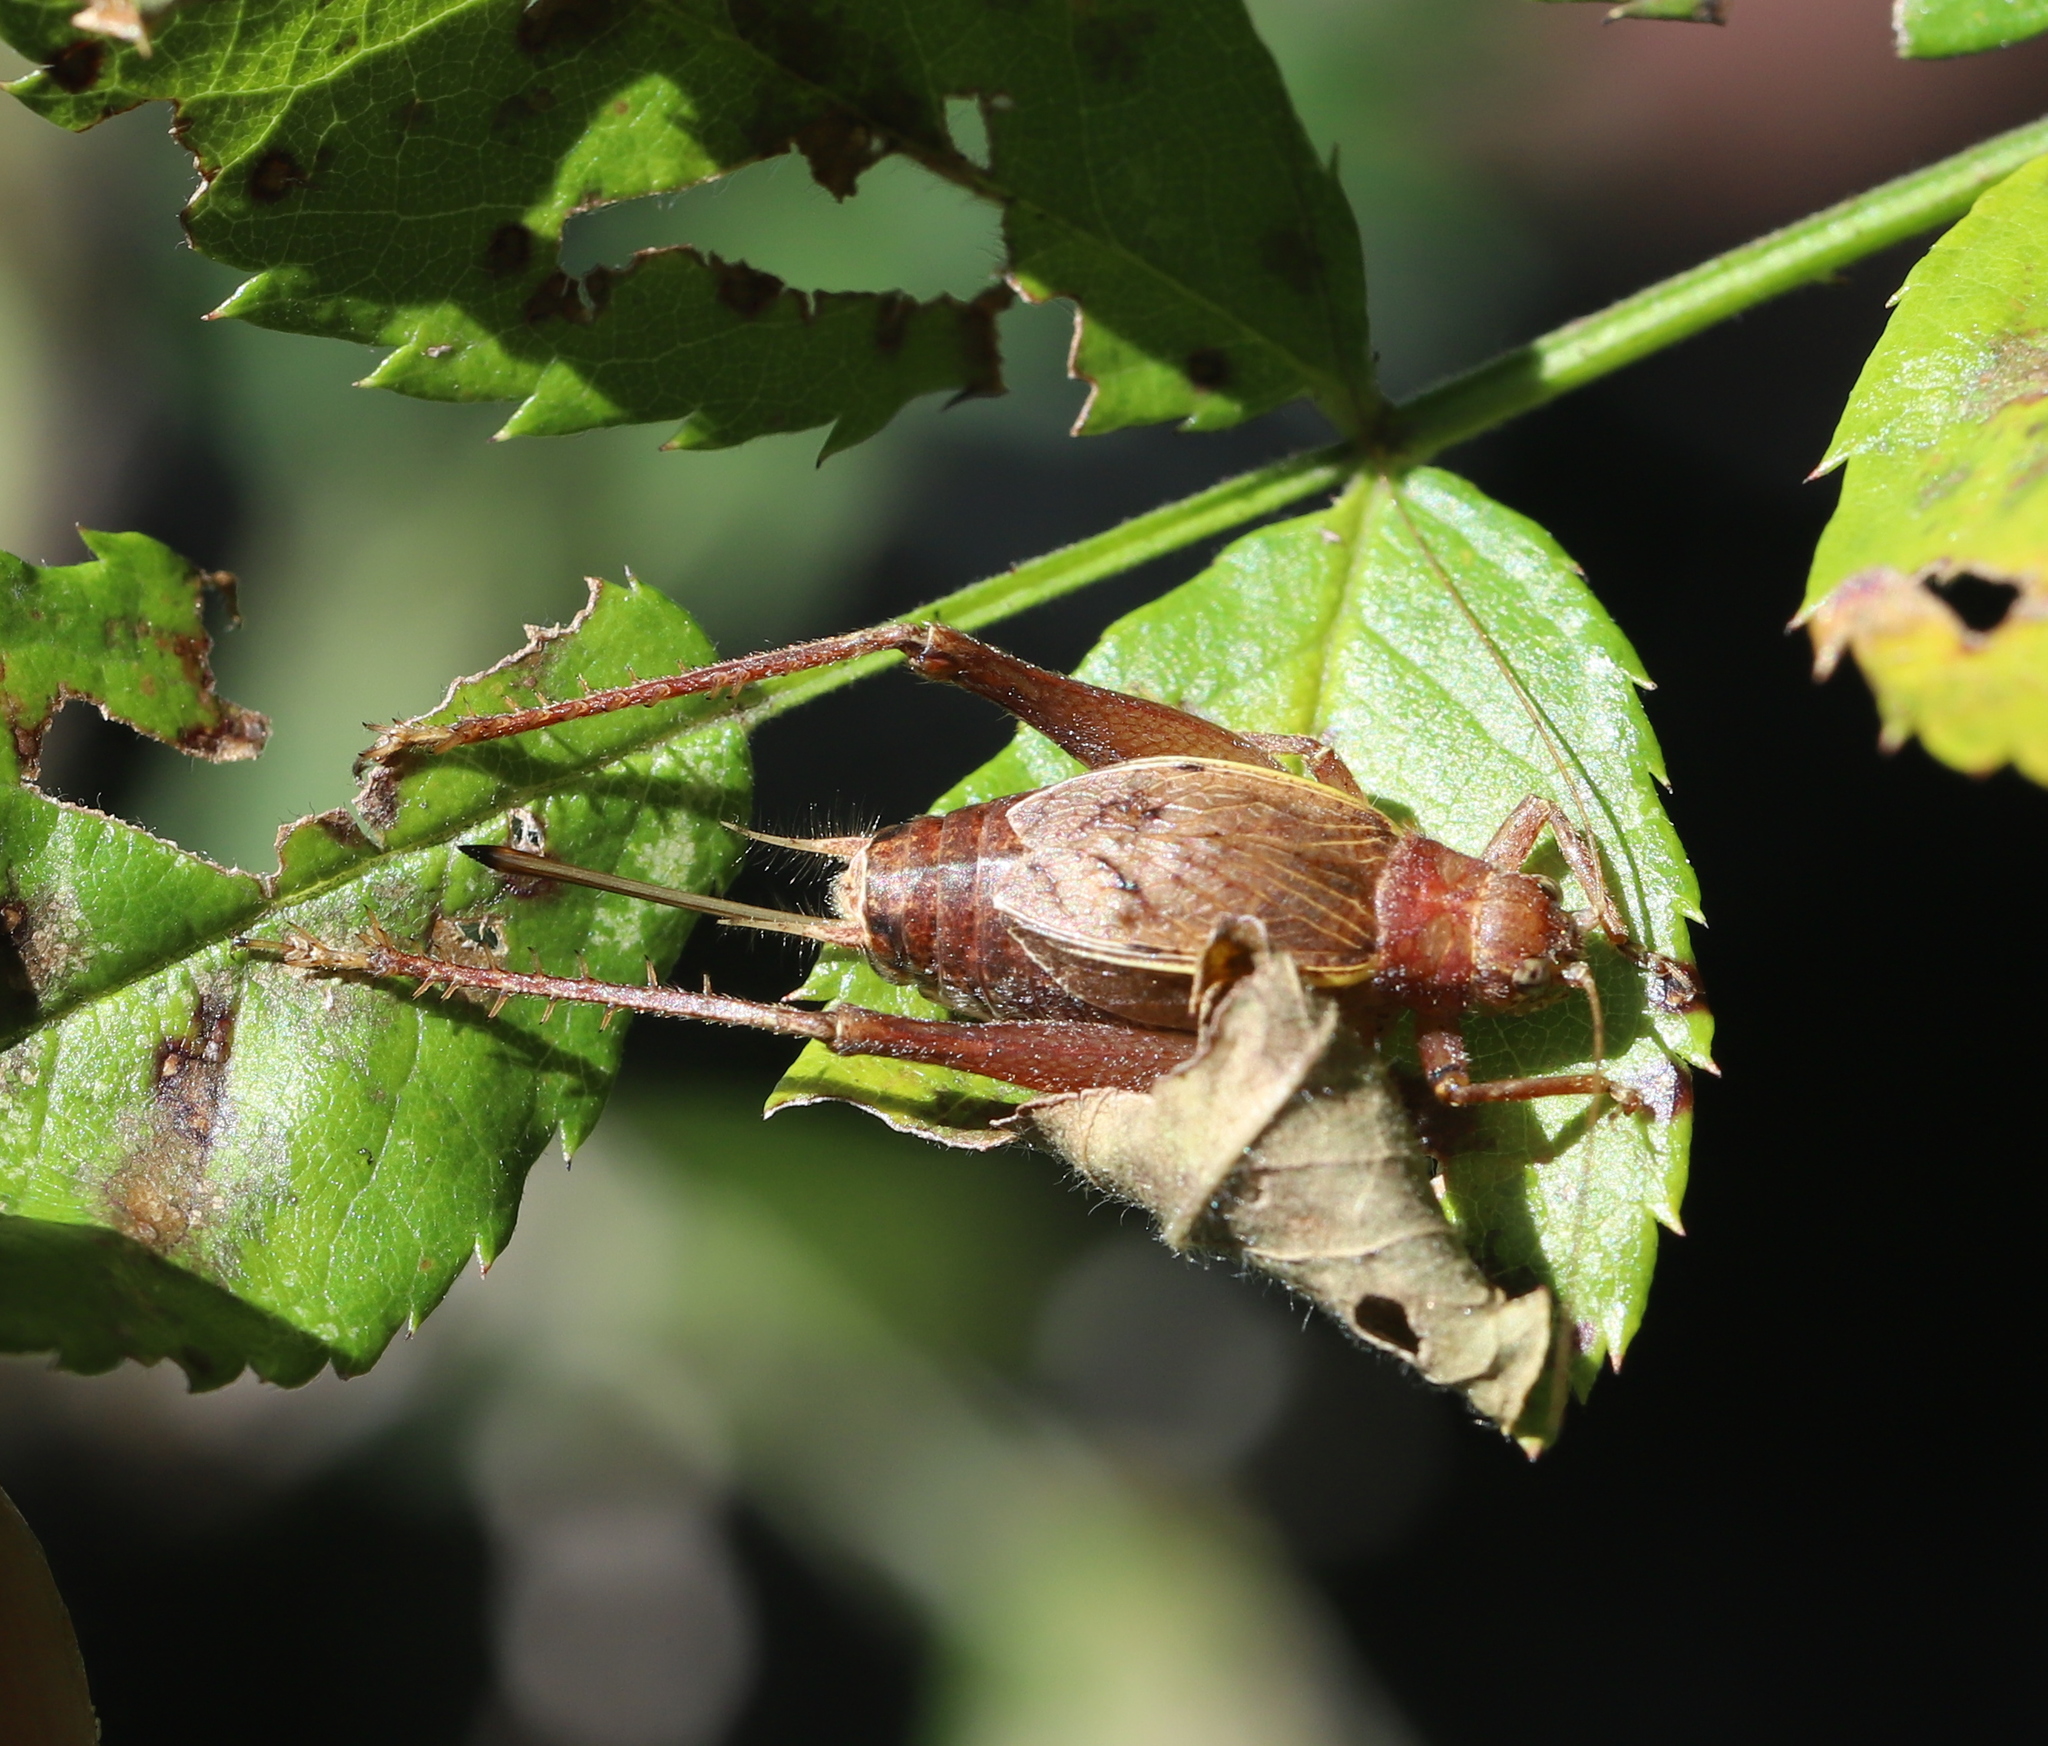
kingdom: Animalia
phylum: Arthropoda
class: Insecta
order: Orthoptera
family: Gryllidae
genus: Hapithus
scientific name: Hapithus agitator
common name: Restless bush cricket
